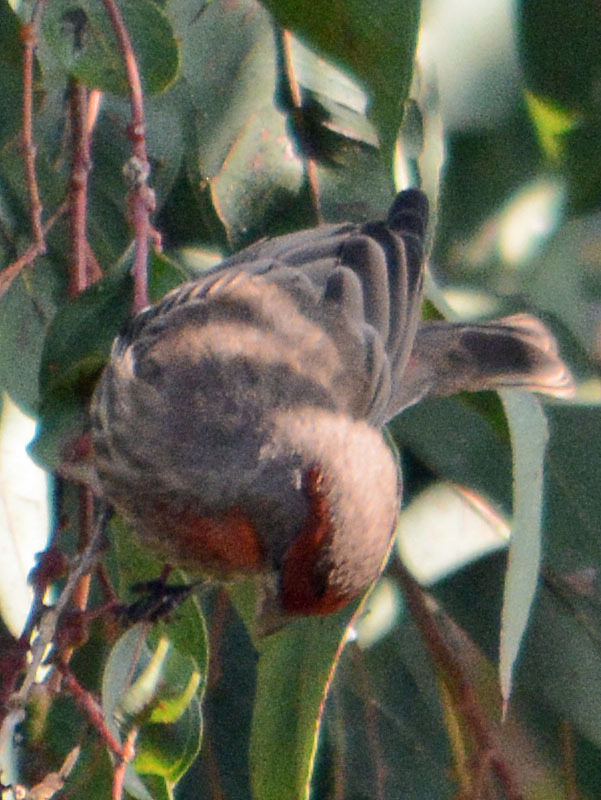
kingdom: Animalia
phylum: Chordata
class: Aves
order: Passeriformes
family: Fringillidae
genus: Haemorhous
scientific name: Haemorhous mexicanus
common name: House finch
